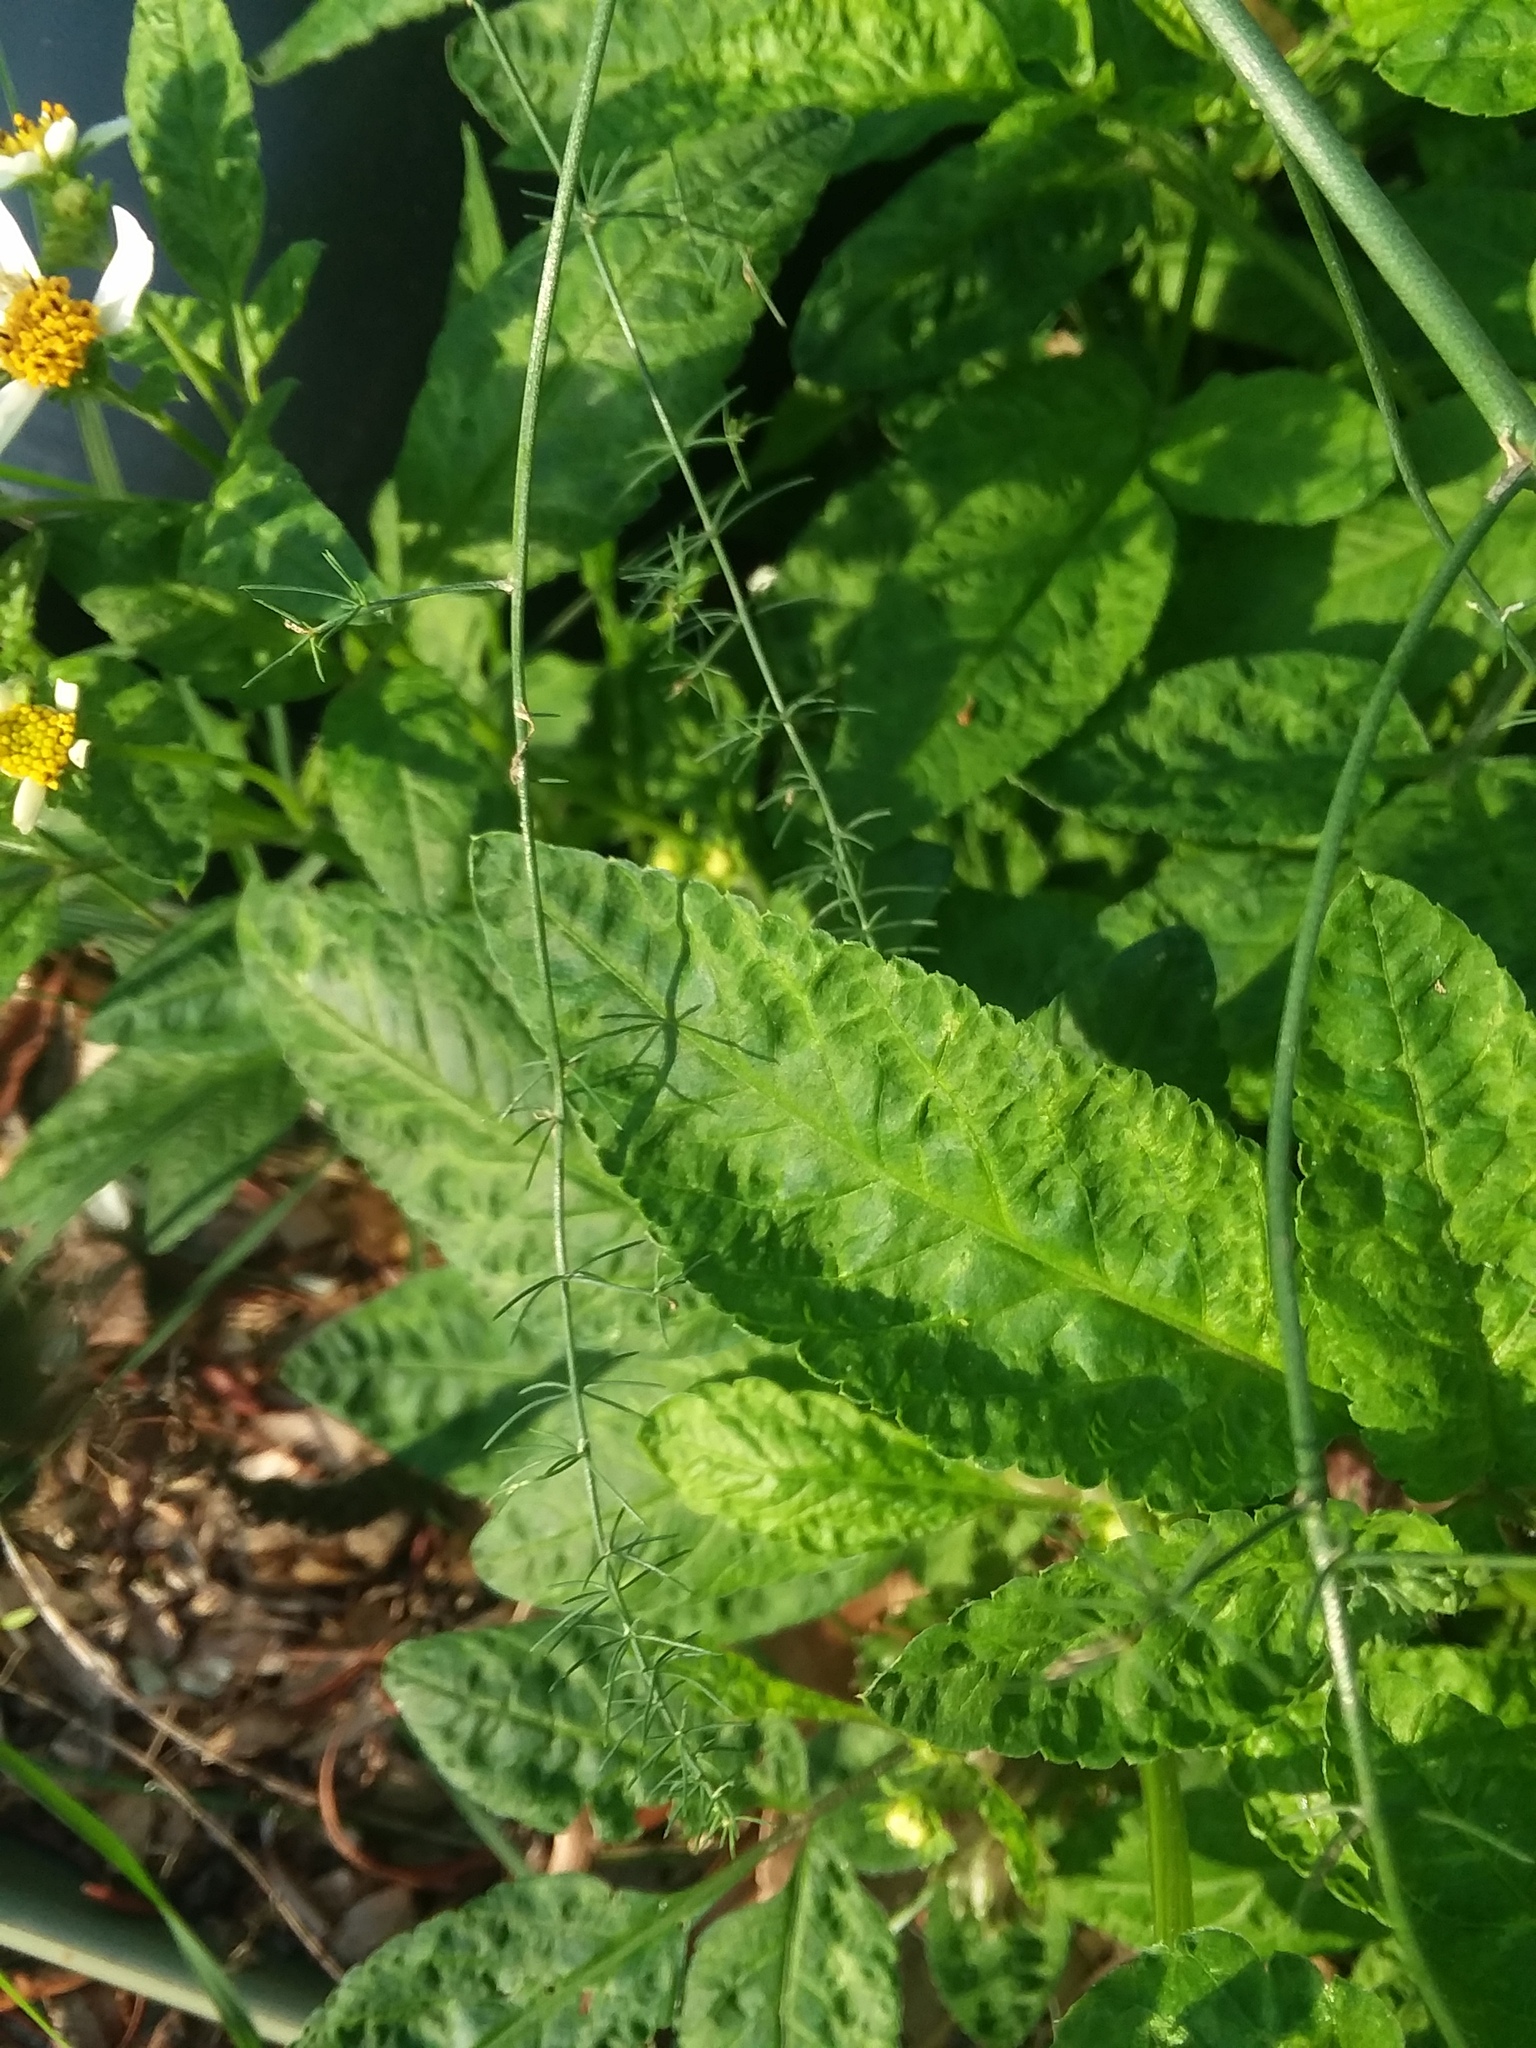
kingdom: Plantae
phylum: Tracheophyta
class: Magnoliopsida
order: Asterales
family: Asteraceae
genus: Bidens
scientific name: Bidens alba
